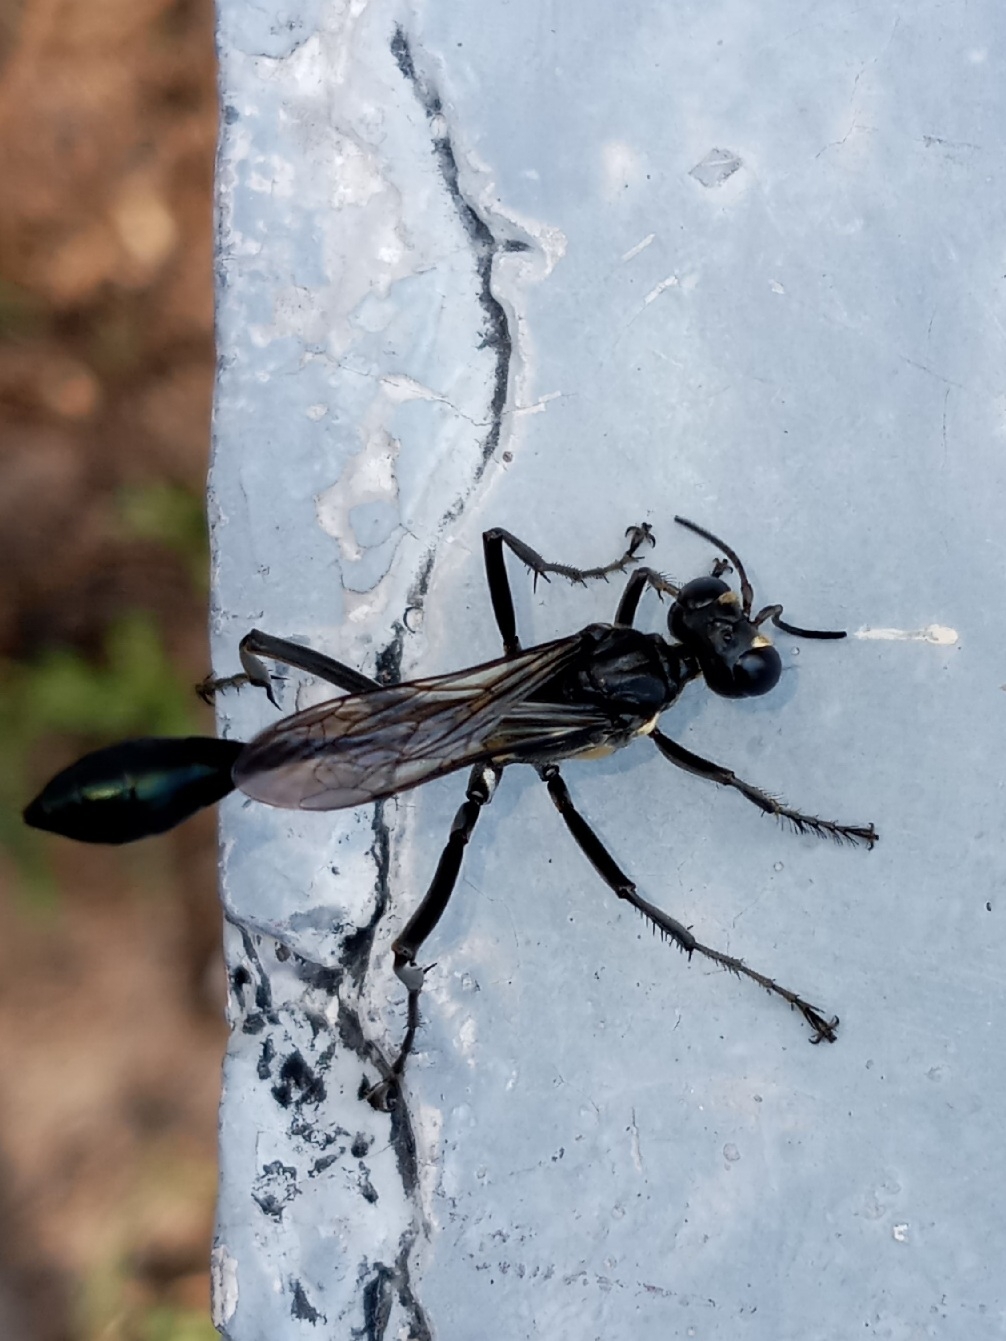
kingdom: Animalia
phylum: Arthropoda
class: Insecta
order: Hymenoptera
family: Sphecidae
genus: Eremnophila
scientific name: Eremnophila aureonotata
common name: Gold-marked thread-waisted wasp
